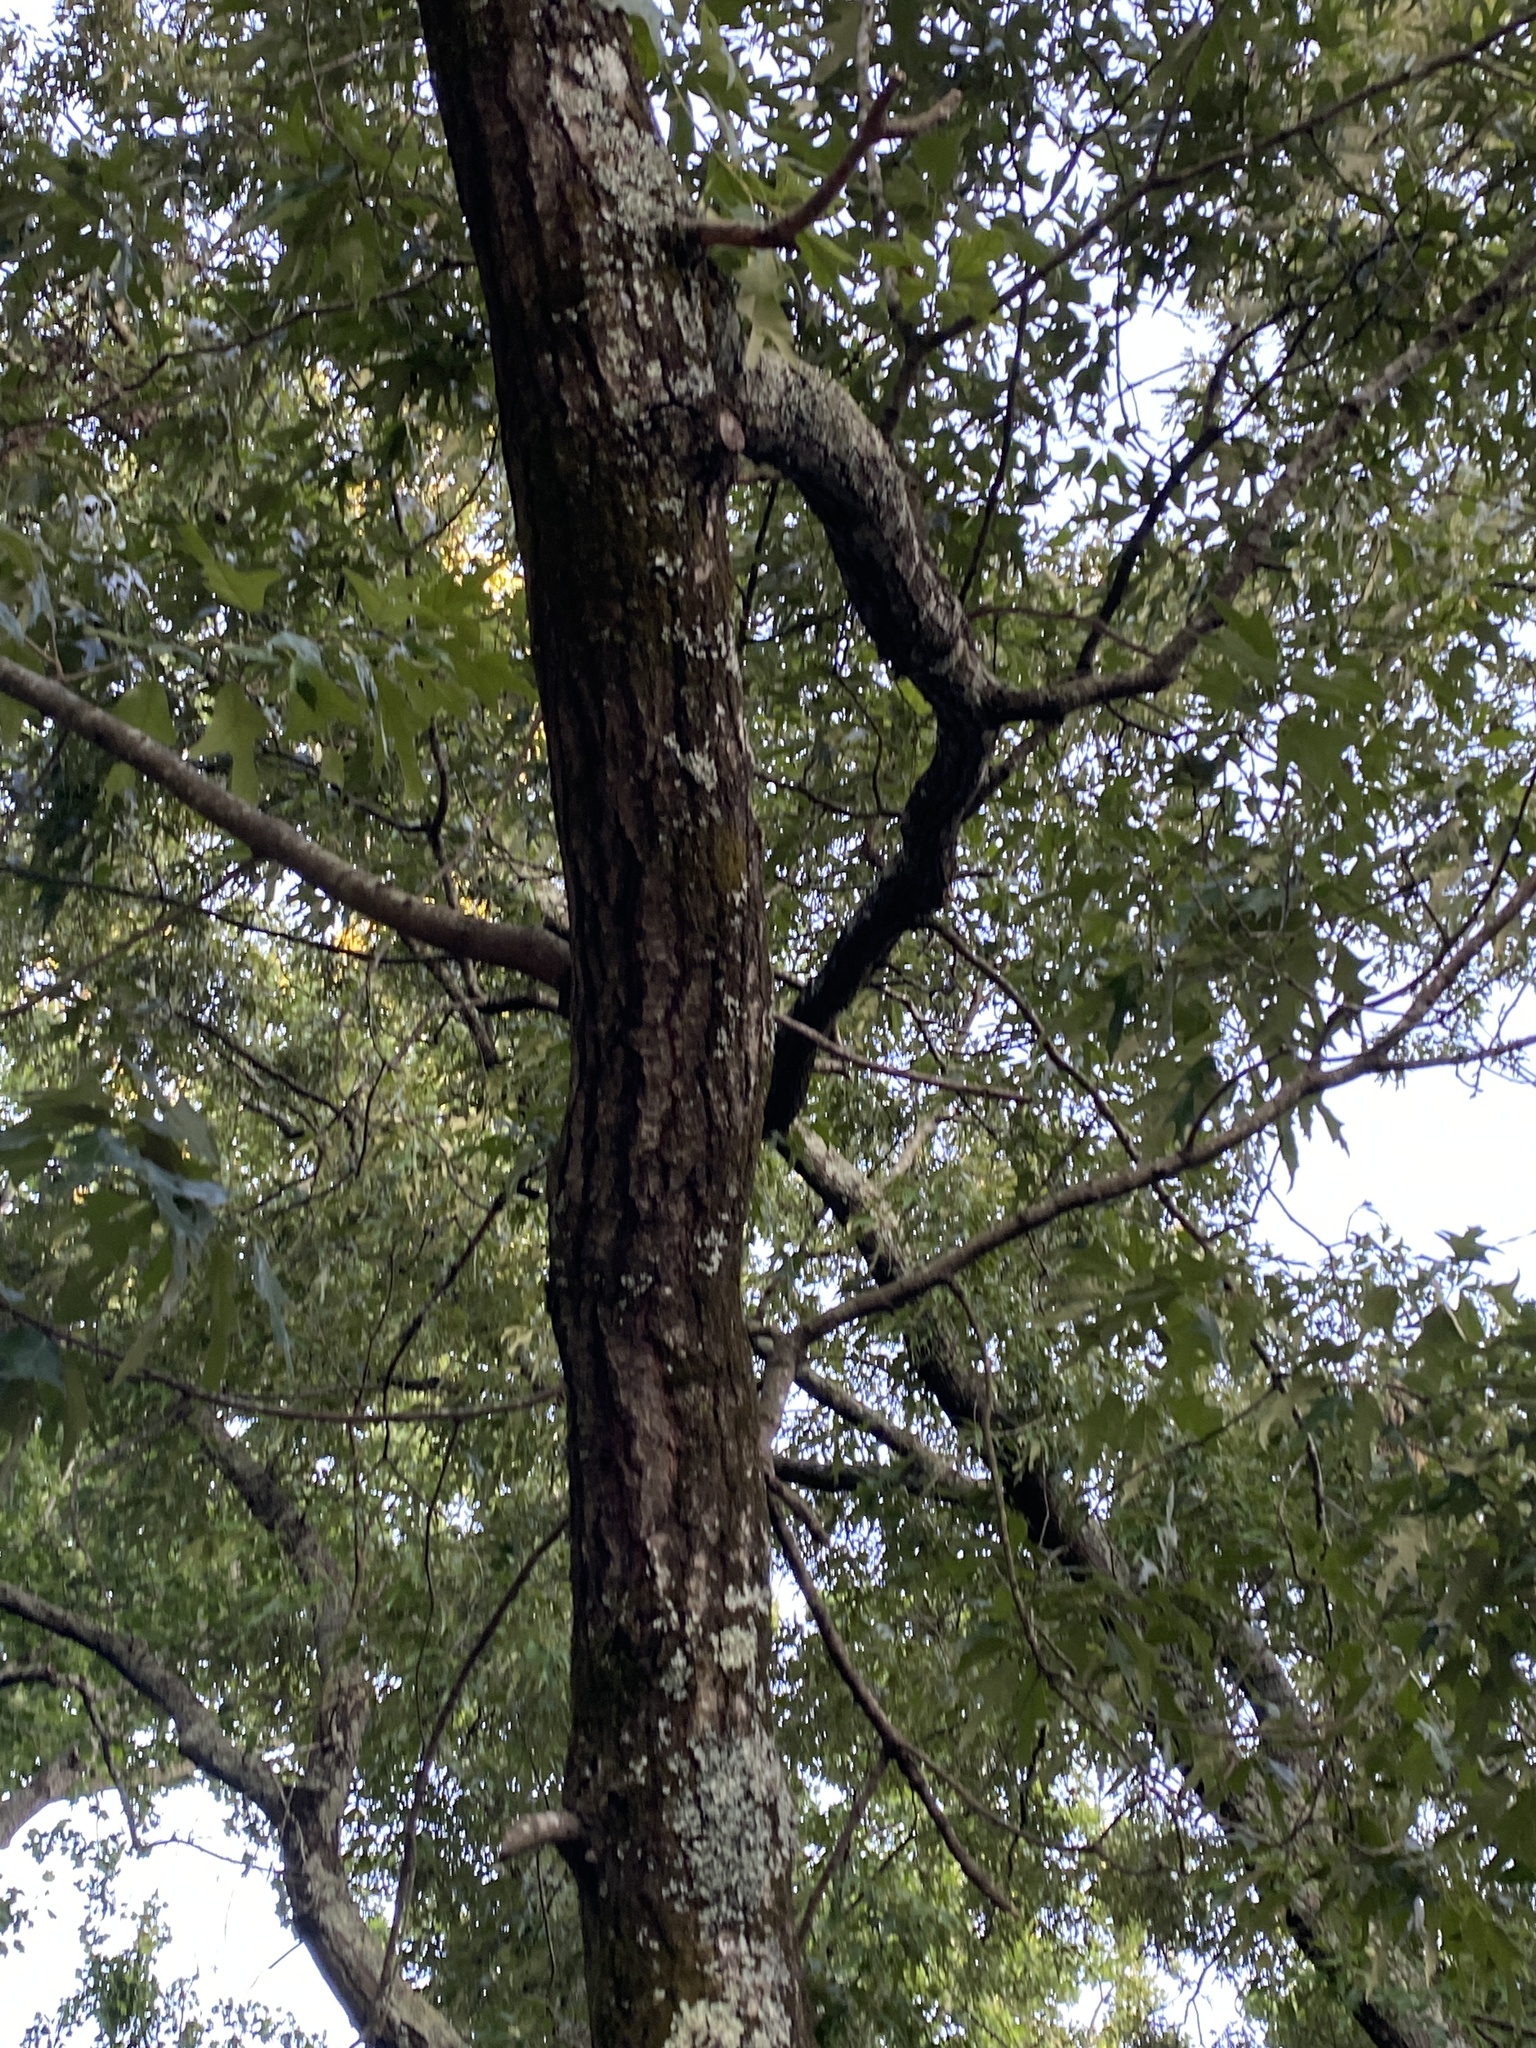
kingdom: Plantae
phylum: Tracheophyta
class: Magnoliopsida
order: Fagales
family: Fagaceae
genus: Quercus
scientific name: Quercus falcata
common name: Southern red oak
